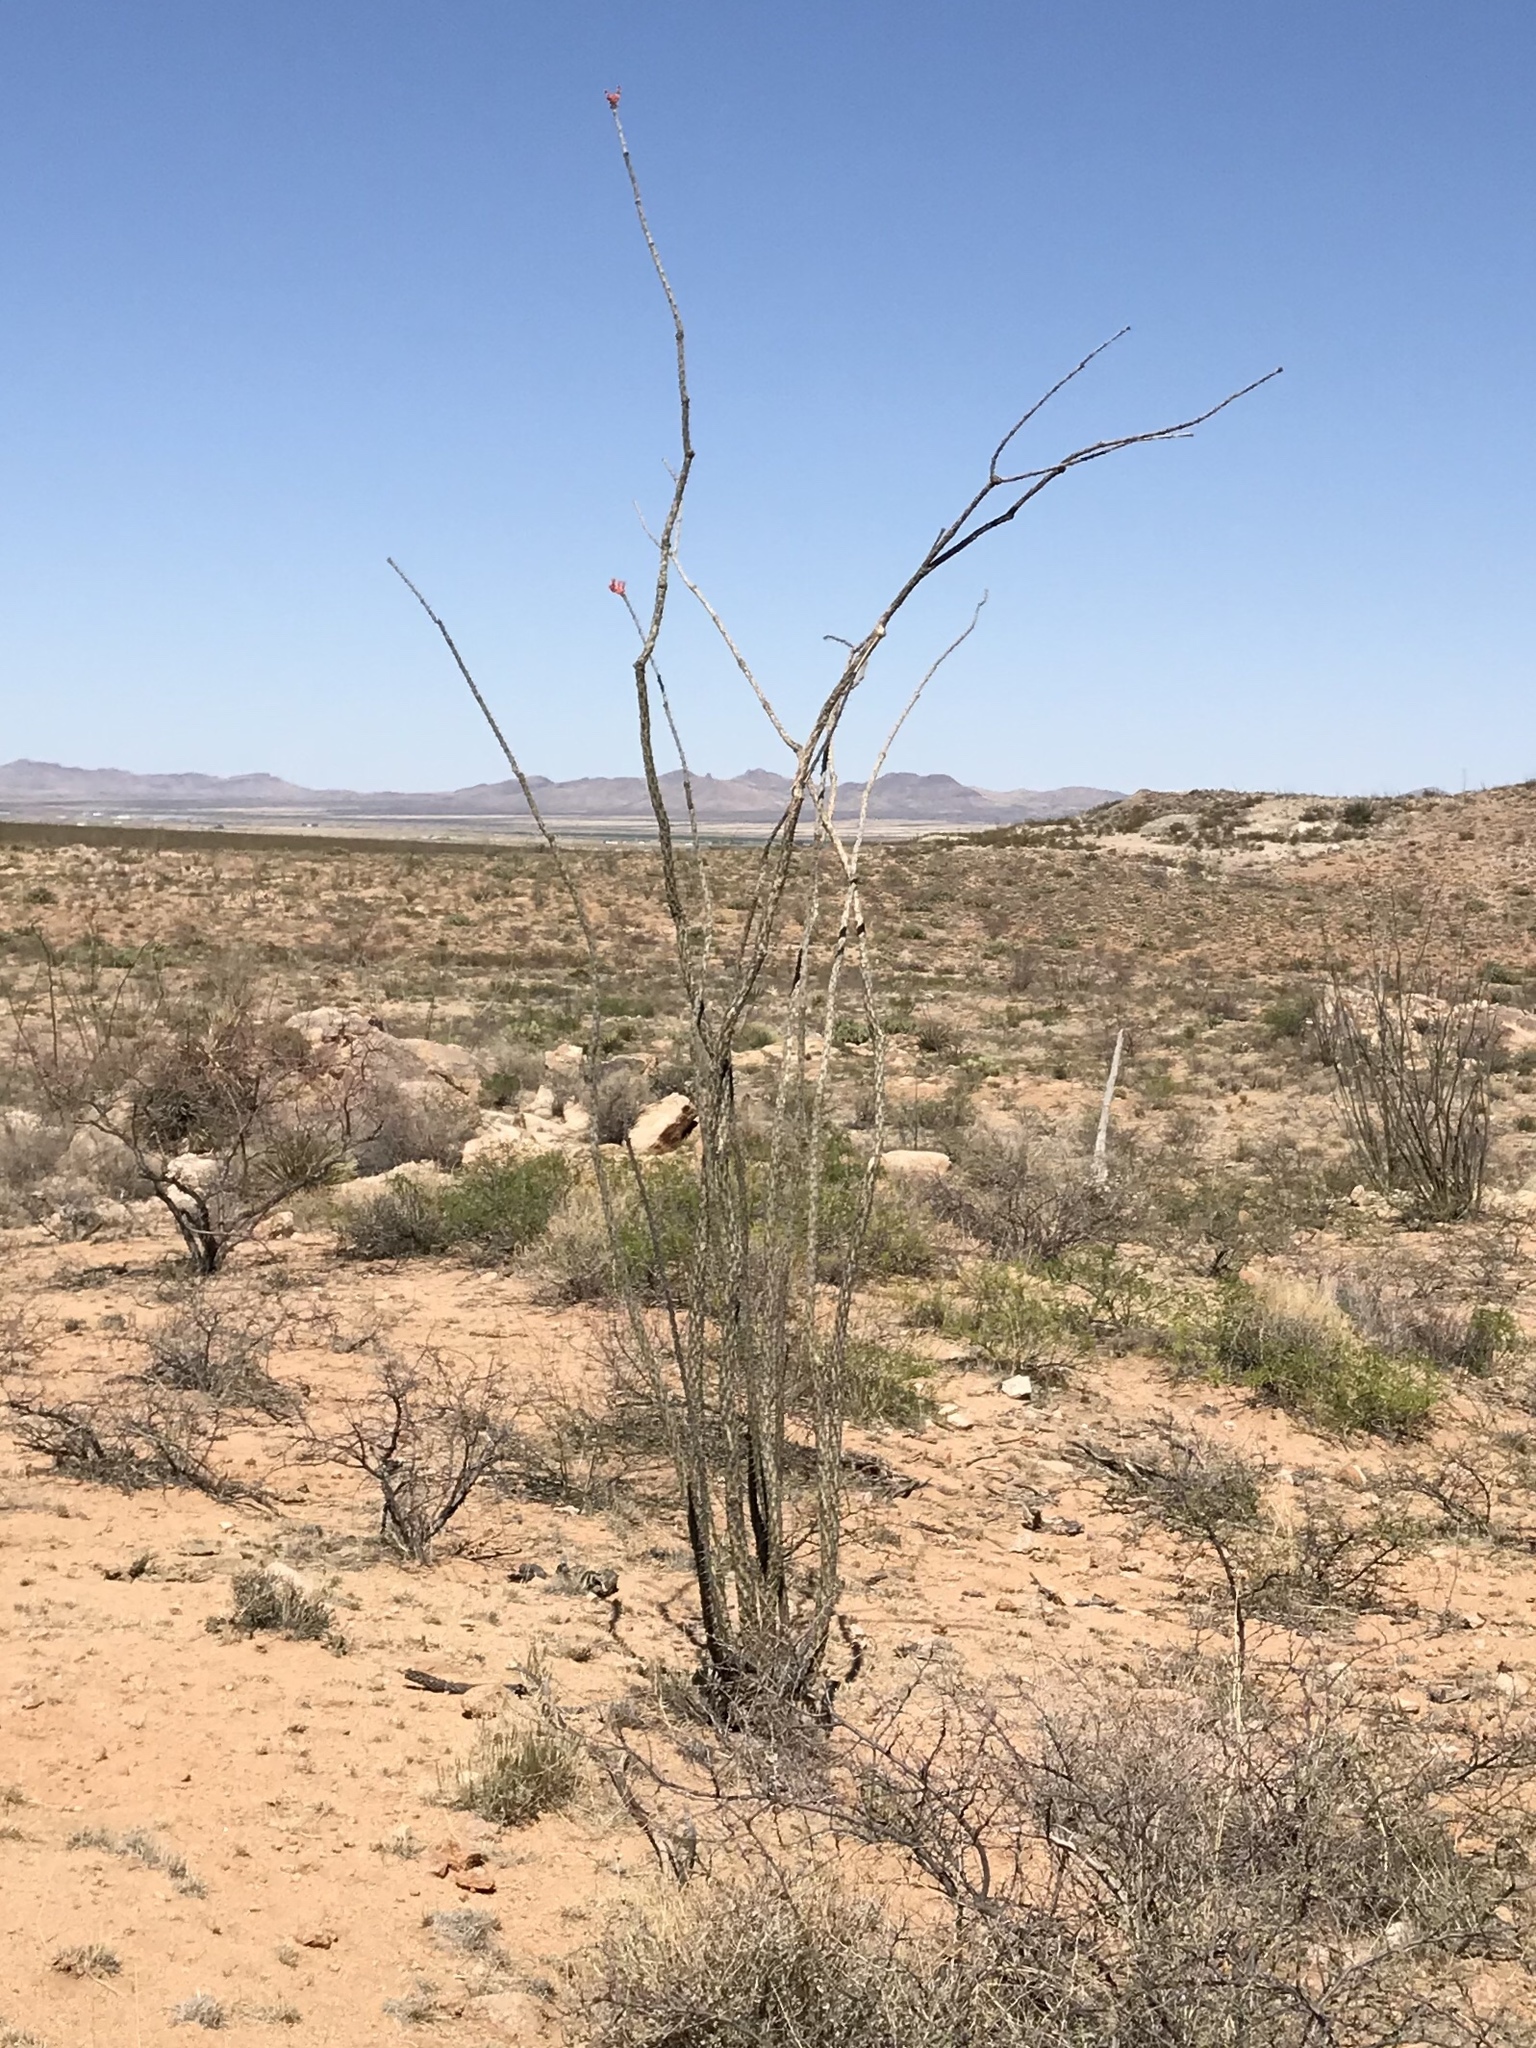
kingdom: Plantae
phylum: Tracheophyta
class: Magnoliopsida
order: Ericales
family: Fouquieriaceae
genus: Fouquieria
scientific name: Fouquieria splendens
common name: Vine-cactus
